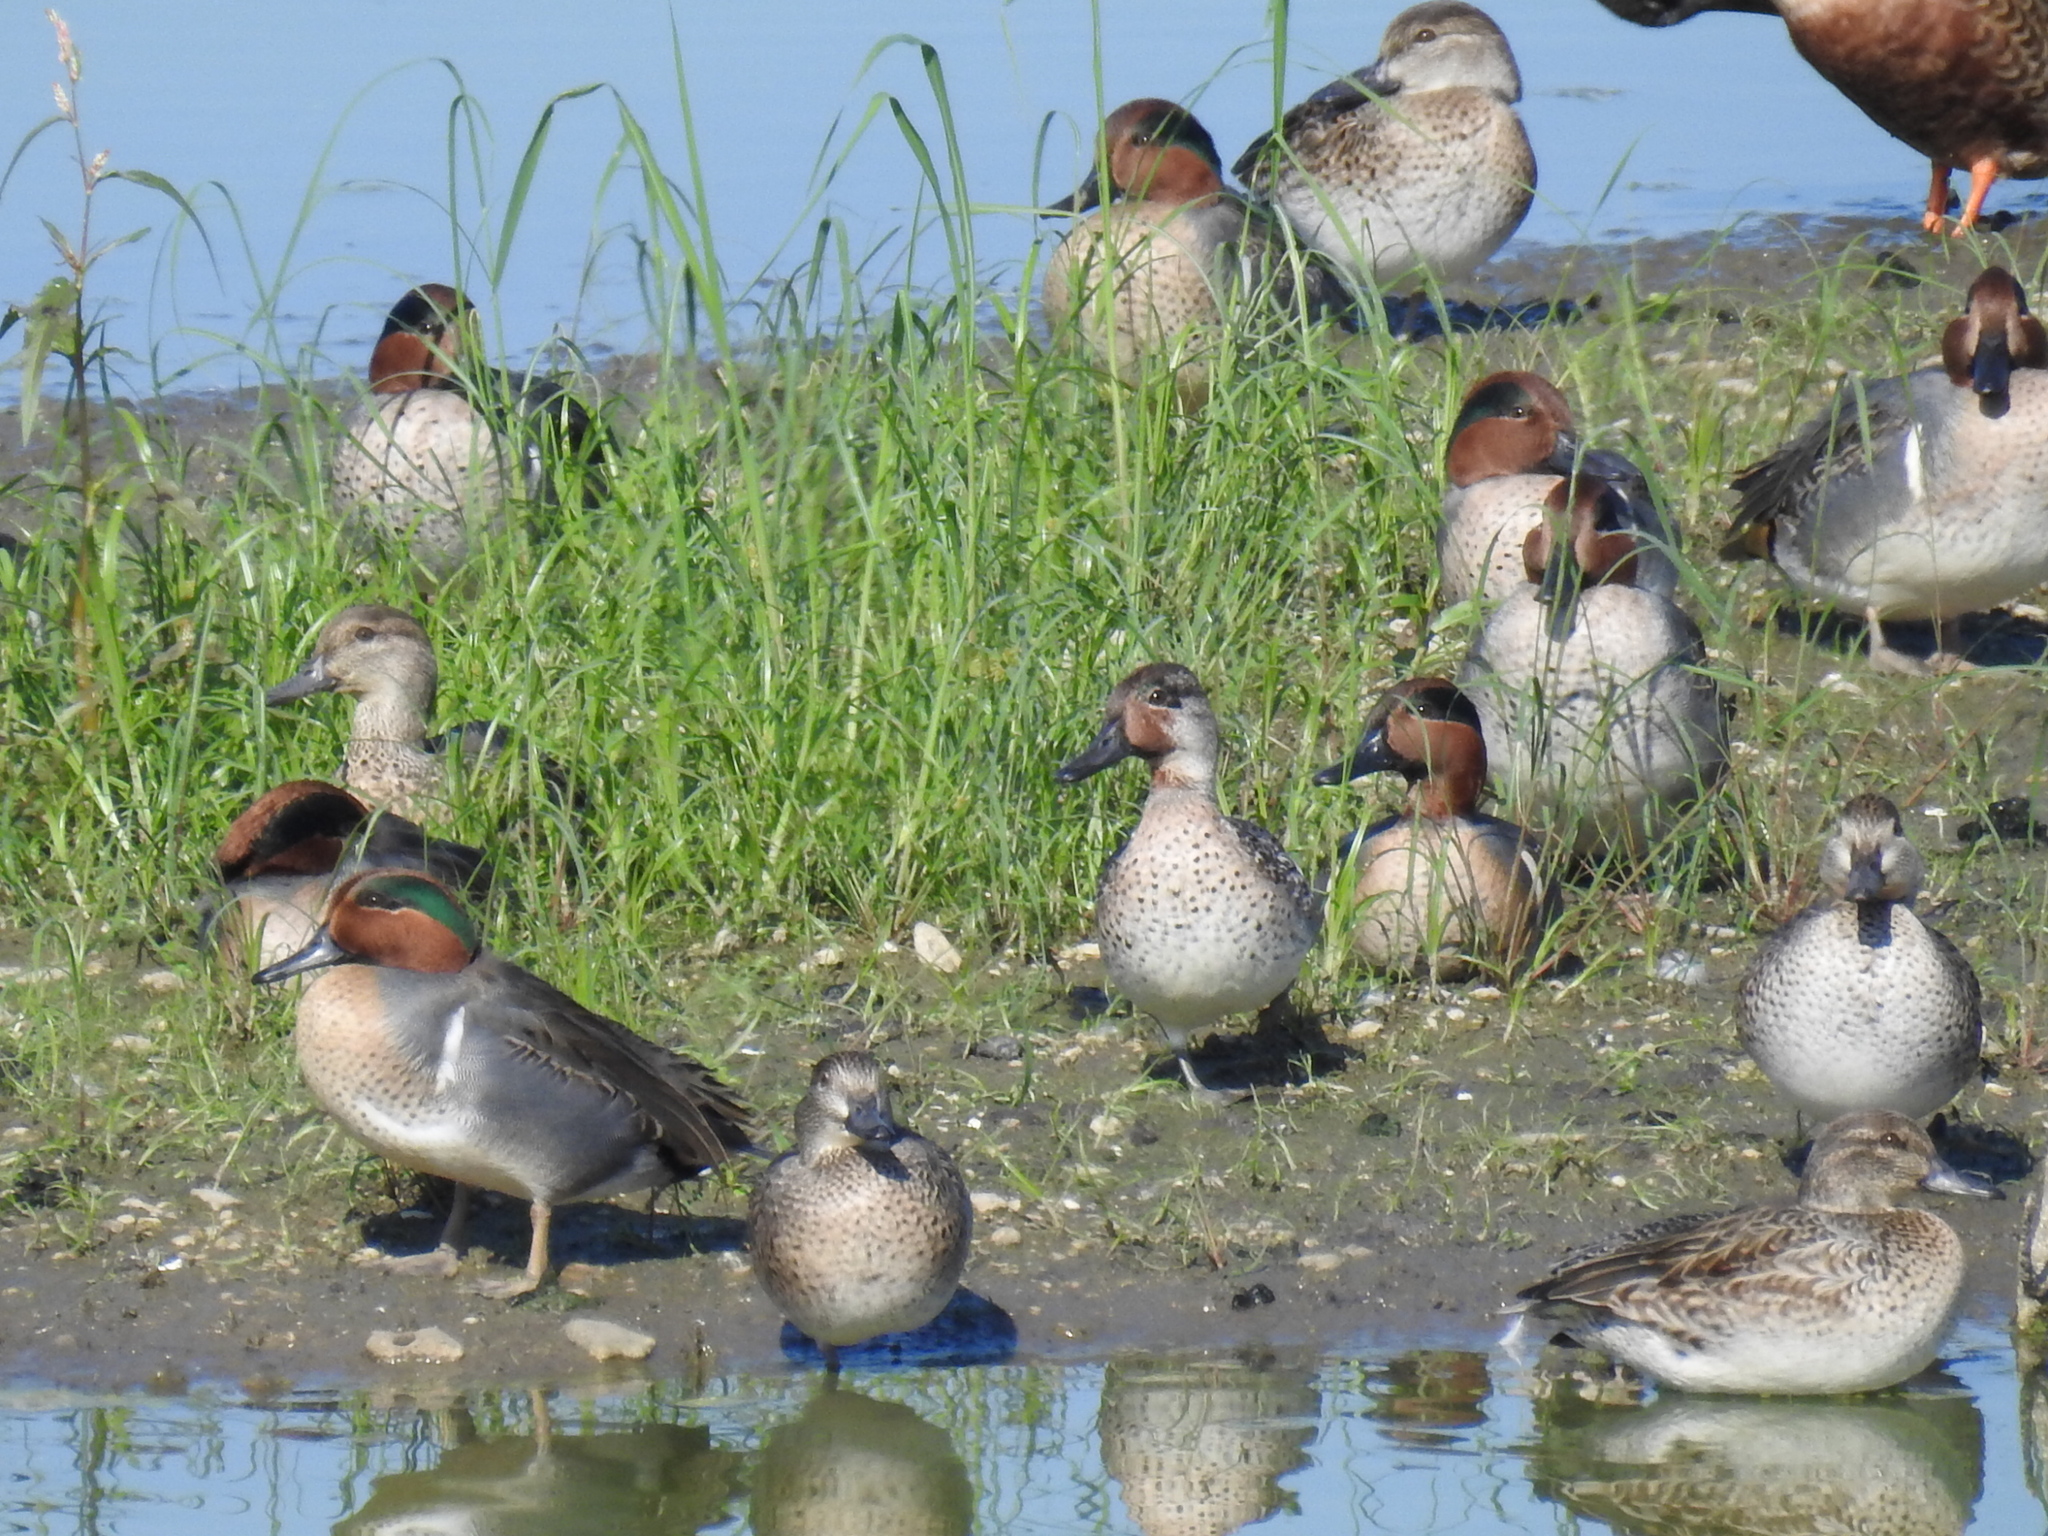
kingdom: Animalia
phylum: Chordata
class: Aves
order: Anseriformes
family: Anatidae
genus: Anas
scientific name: Anas crecca
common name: Eurasian teal
